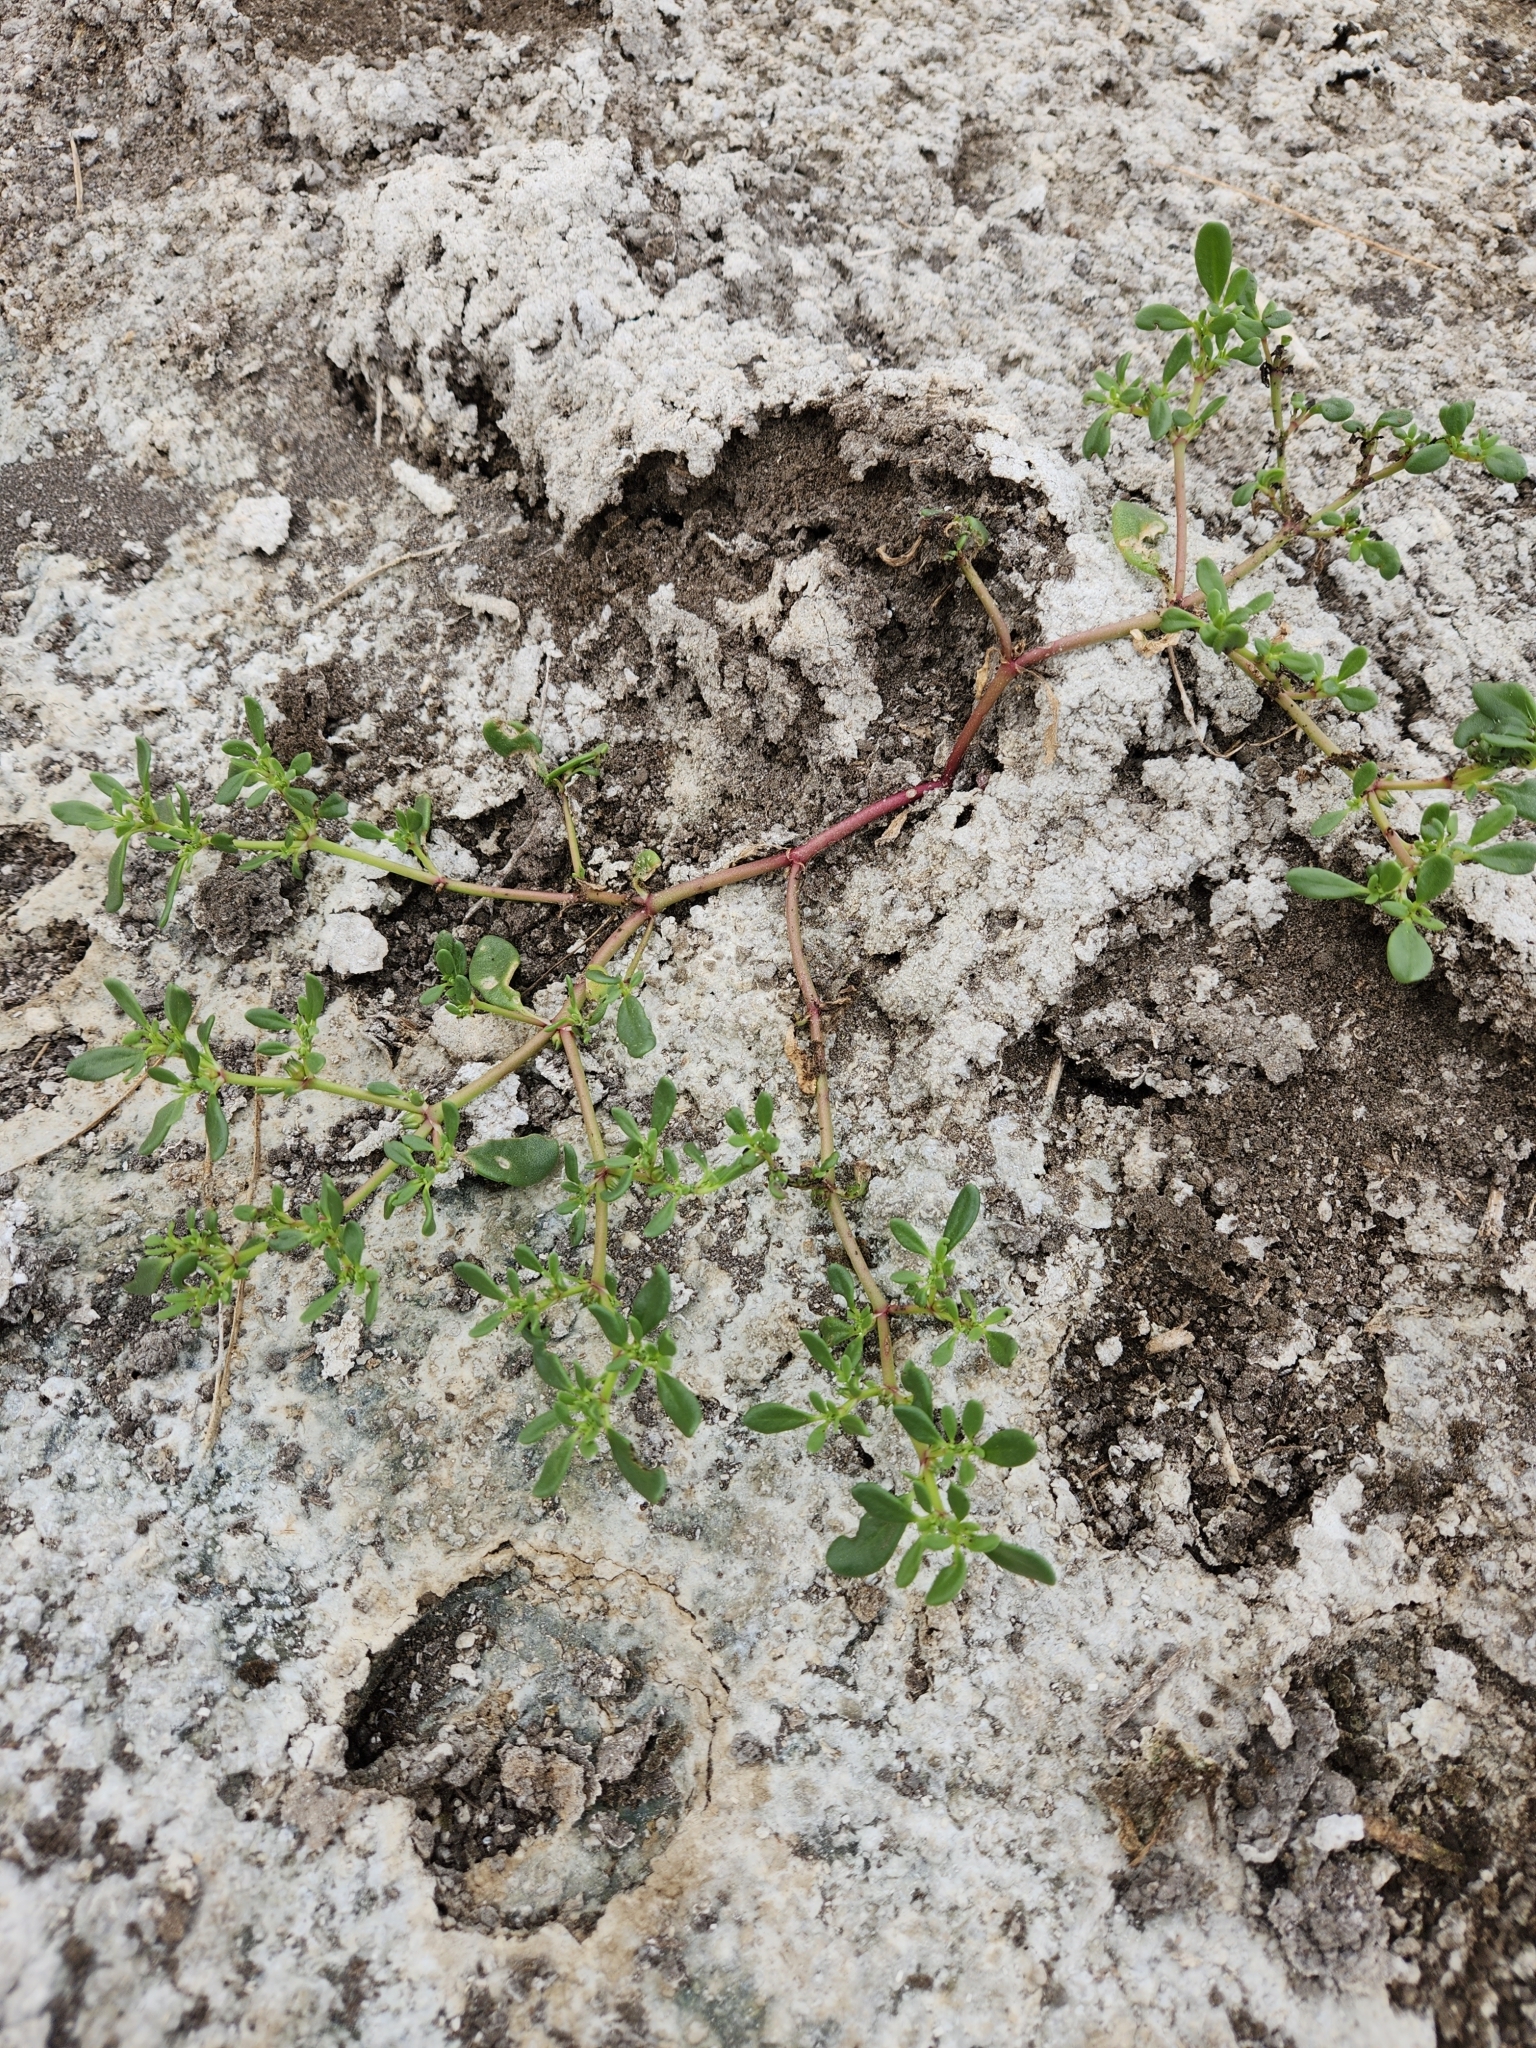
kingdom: Plantae
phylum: Tracheophyta
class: Magnoliopsida
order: Caryophyllales
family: Aizoaceae
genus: Trianthema
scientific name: Trianthema portulacastrum
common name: Desert horsepurslane
